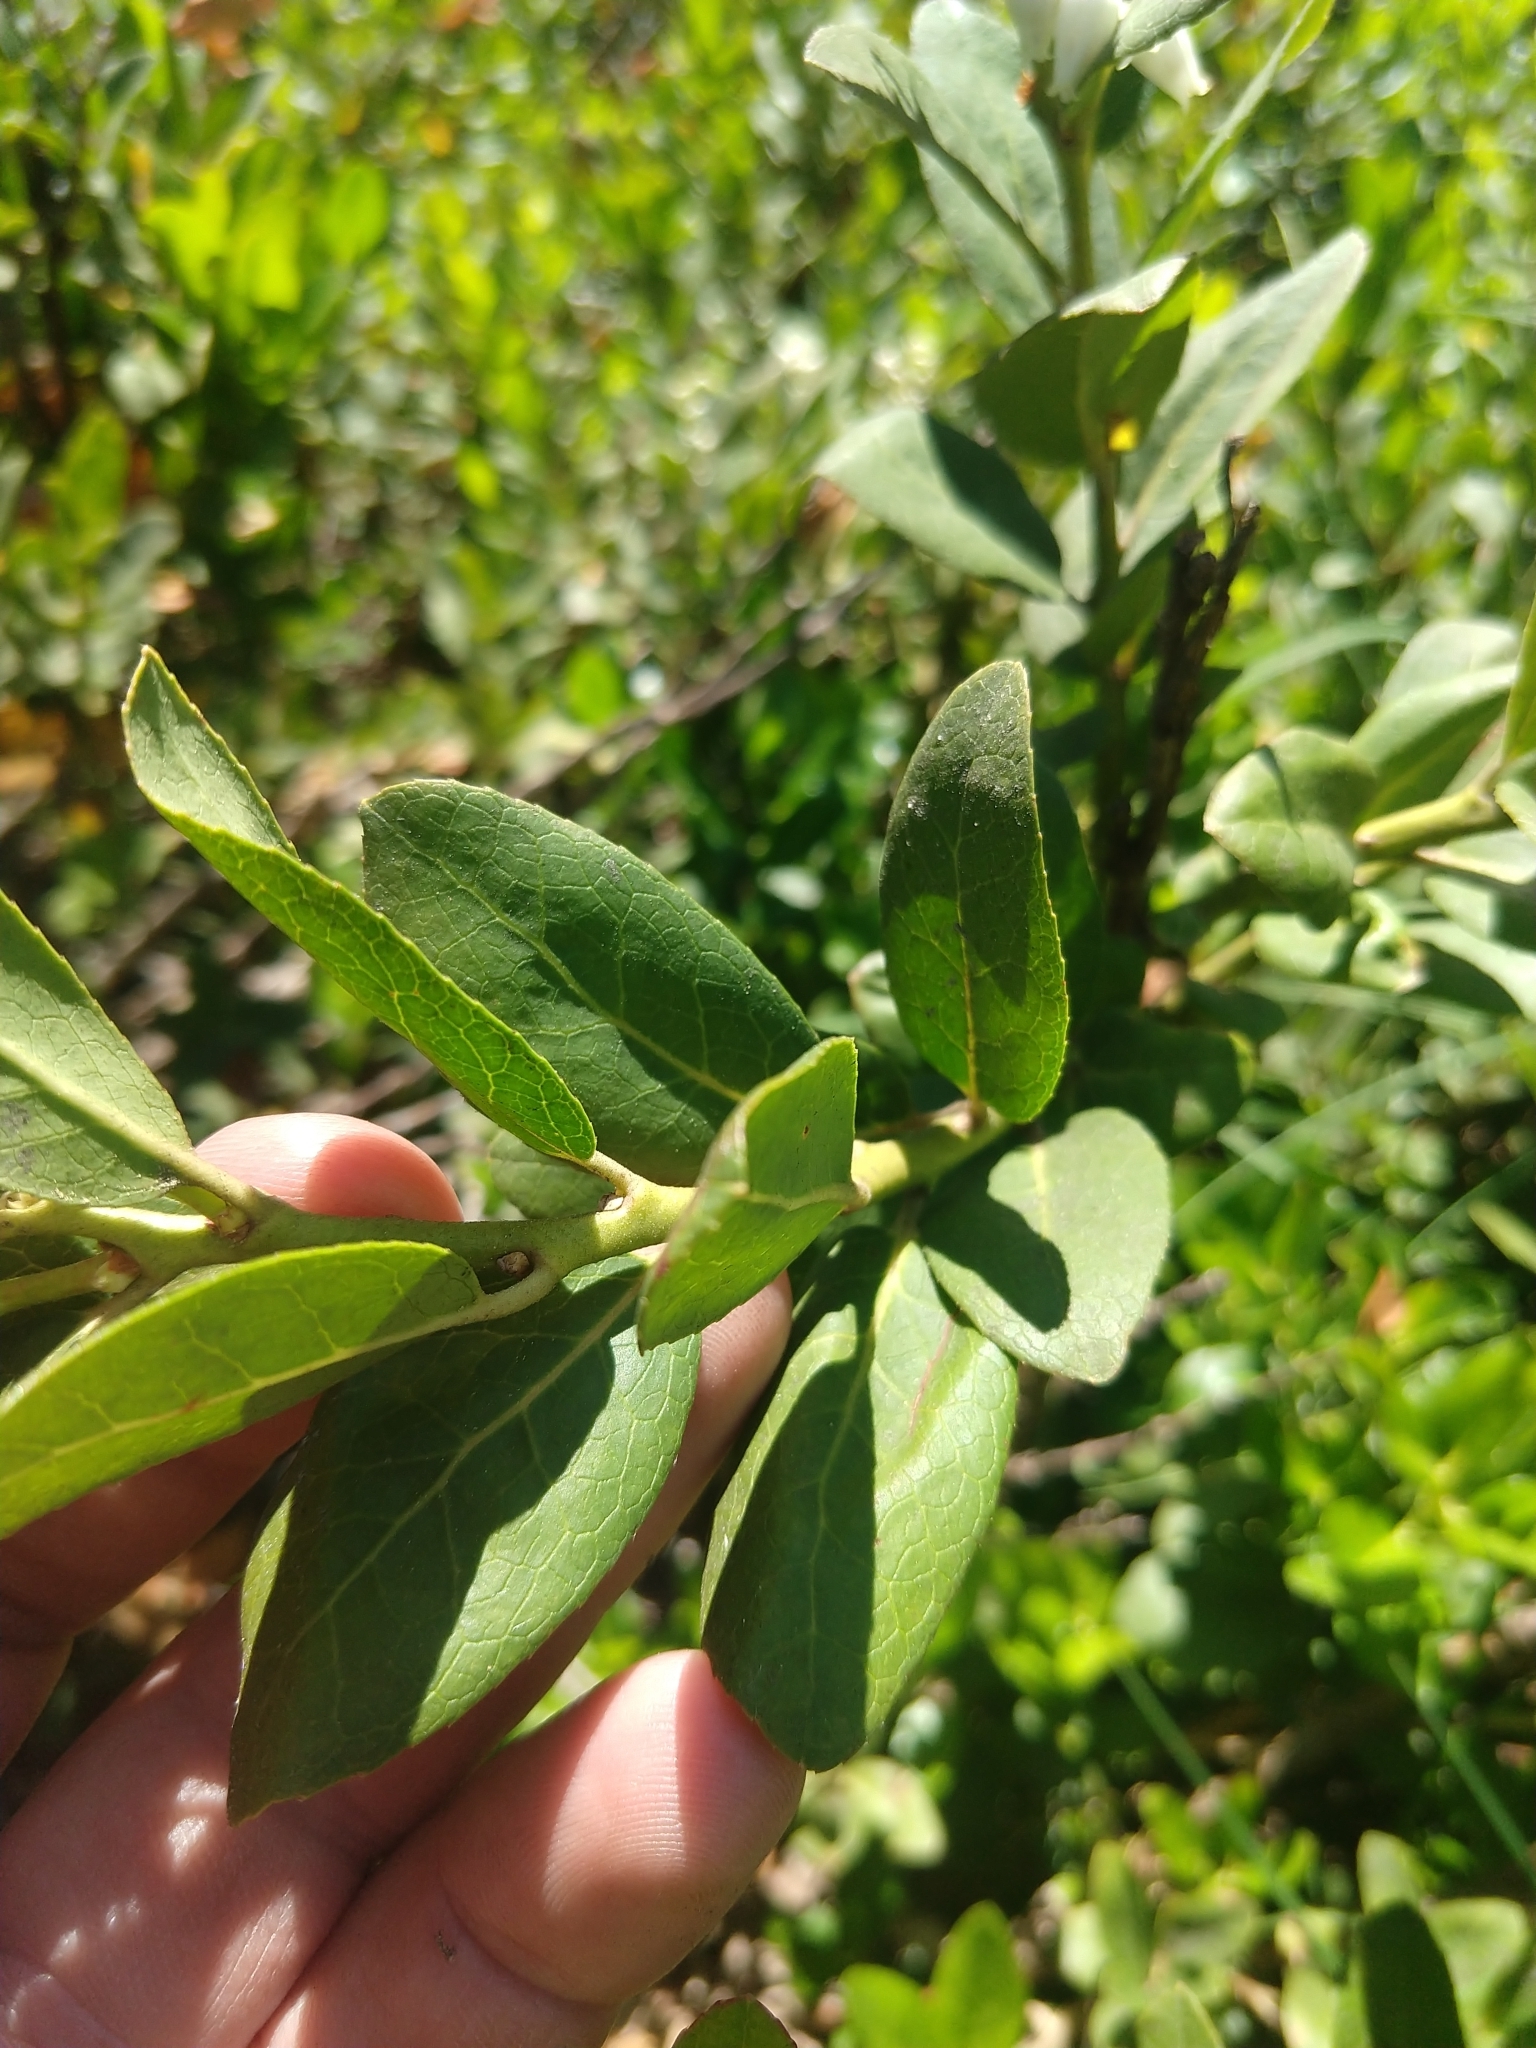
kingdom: Plantae
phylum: Tracheophyta
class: Magnoliopsida
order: Ericales
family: Ericaceae
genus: Leucothoe
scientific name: Leucothoe davisiae
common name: Sierra-laurel
